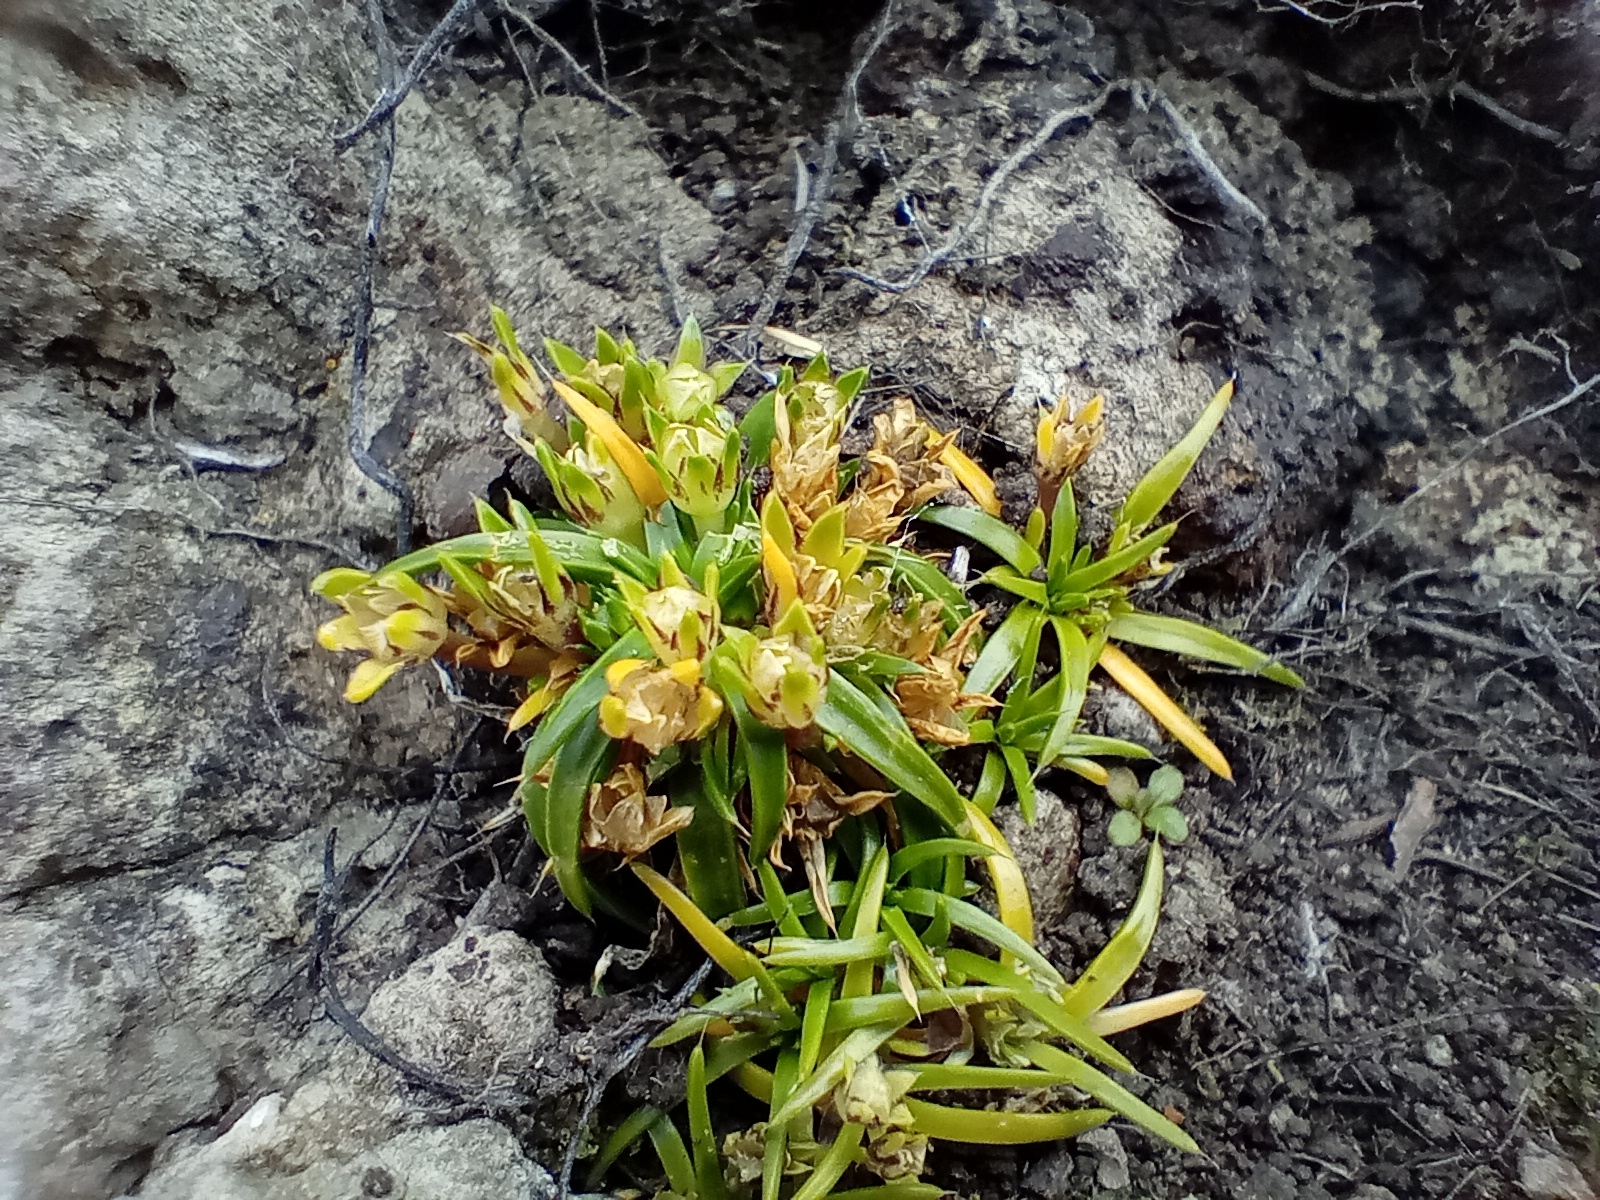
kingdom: Plantae
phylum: Tracheophyta
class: Magnoliopsida
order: Caryophyllales
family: Caryophyllaceae
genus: Colobanthus
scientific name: Colobanthus muelleri
